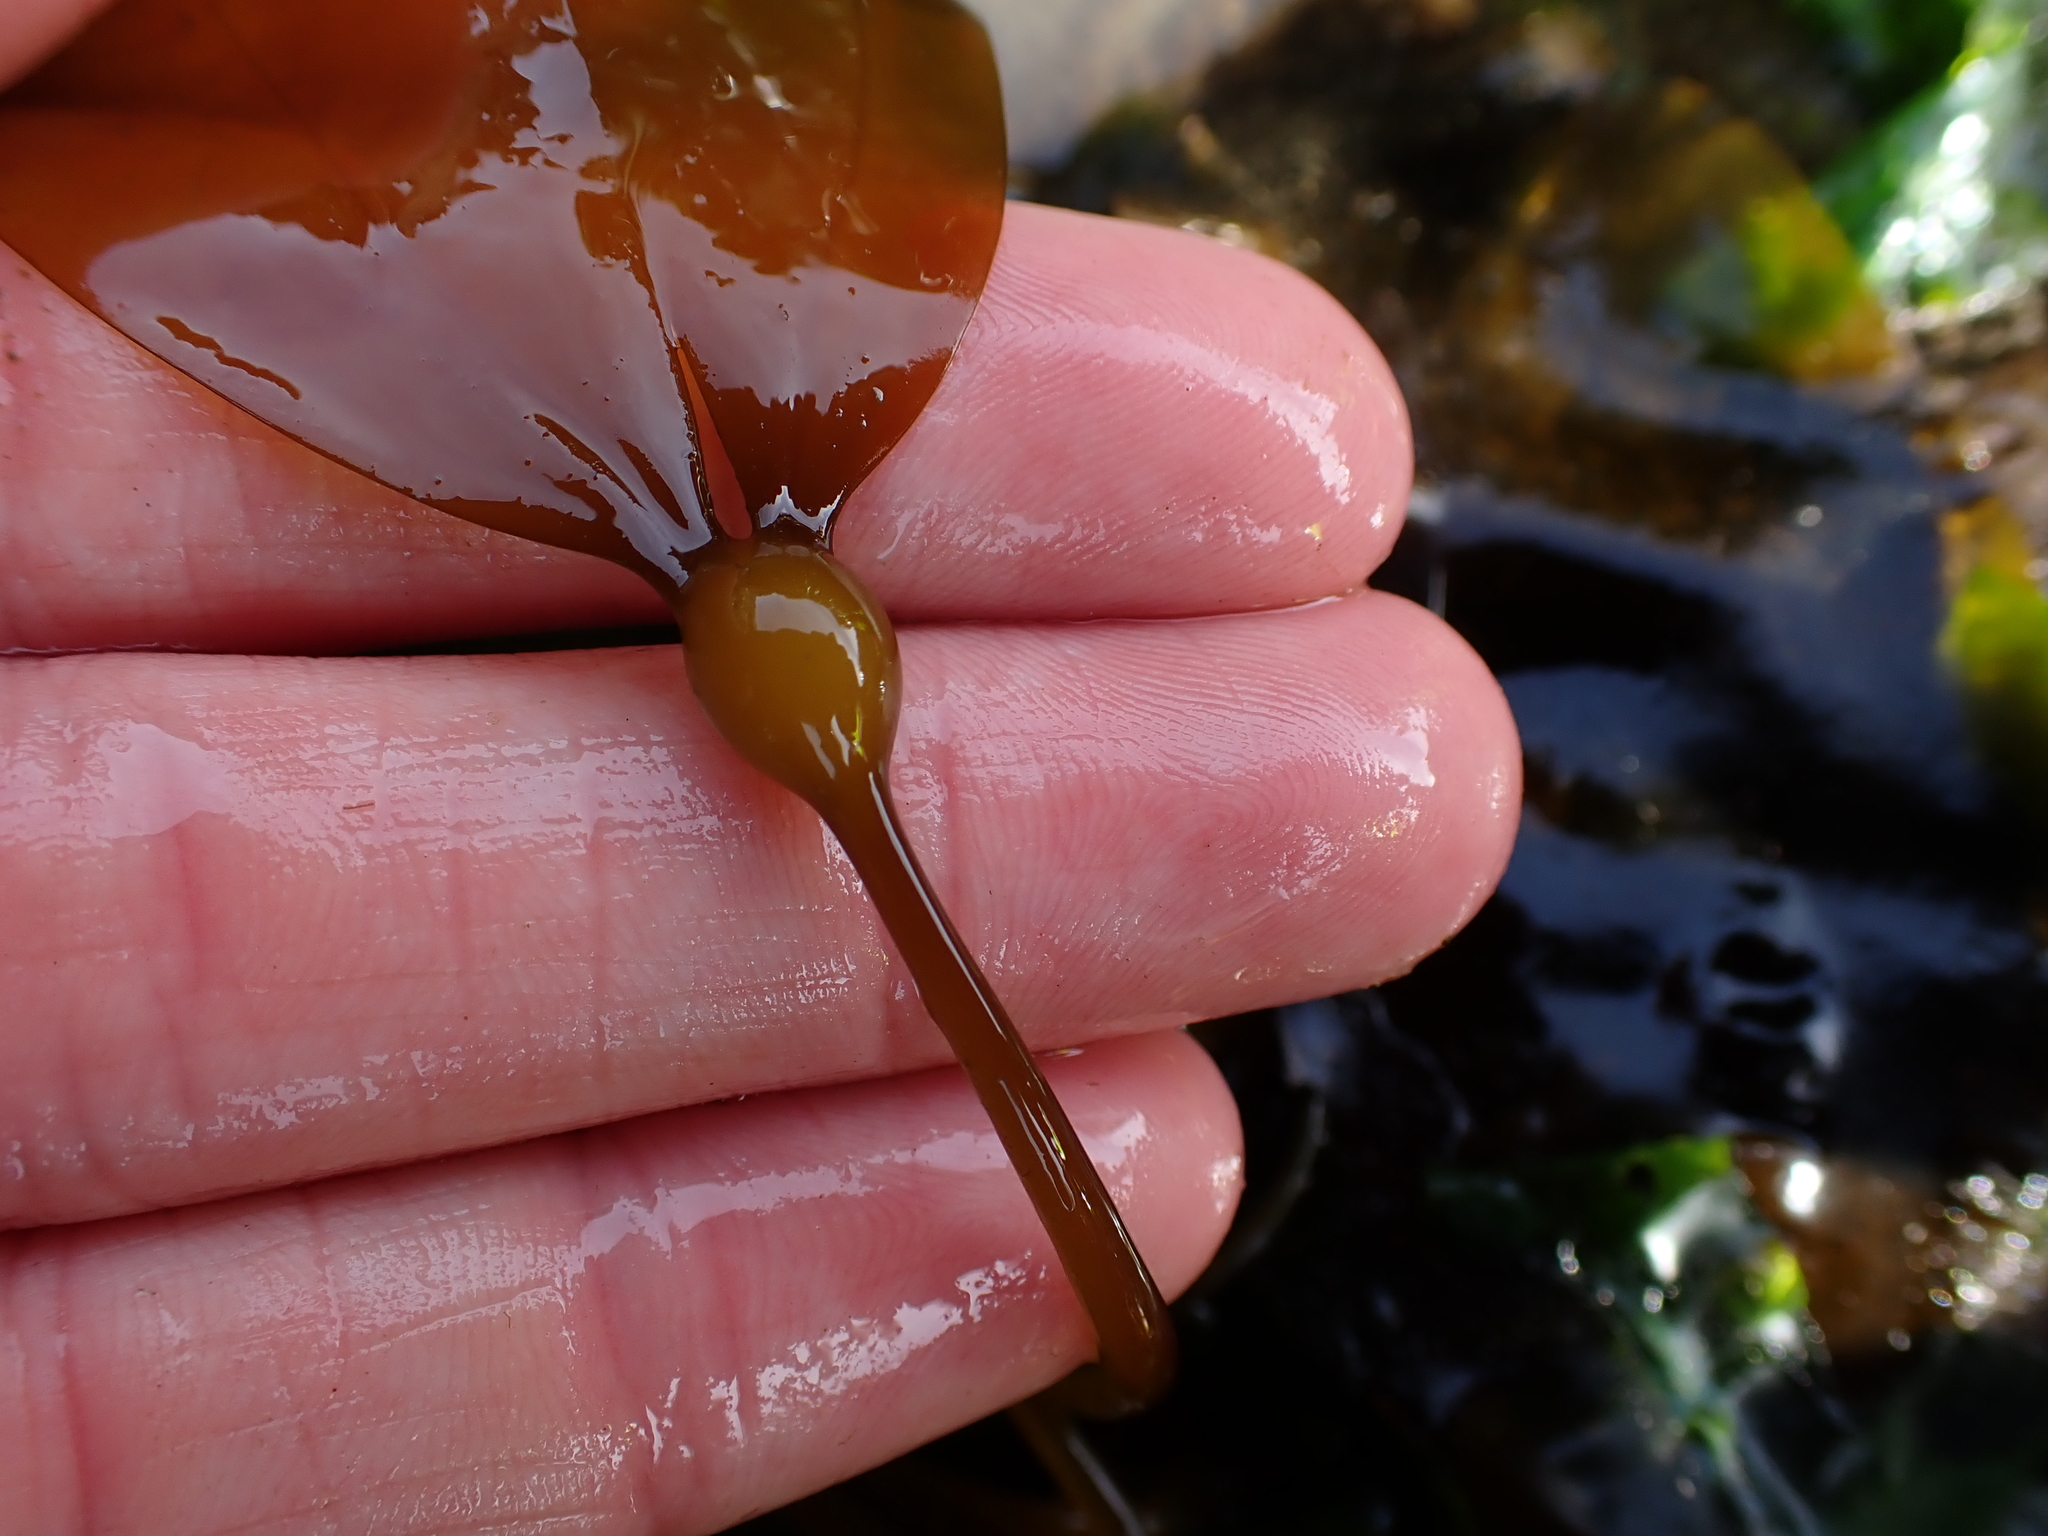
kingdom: Chromista
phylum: Ochrophyta
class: Phaeophyceae
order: Laminariales
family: Laminariaceae
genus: Nereocystis
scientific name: Nereocystis luetkeana
